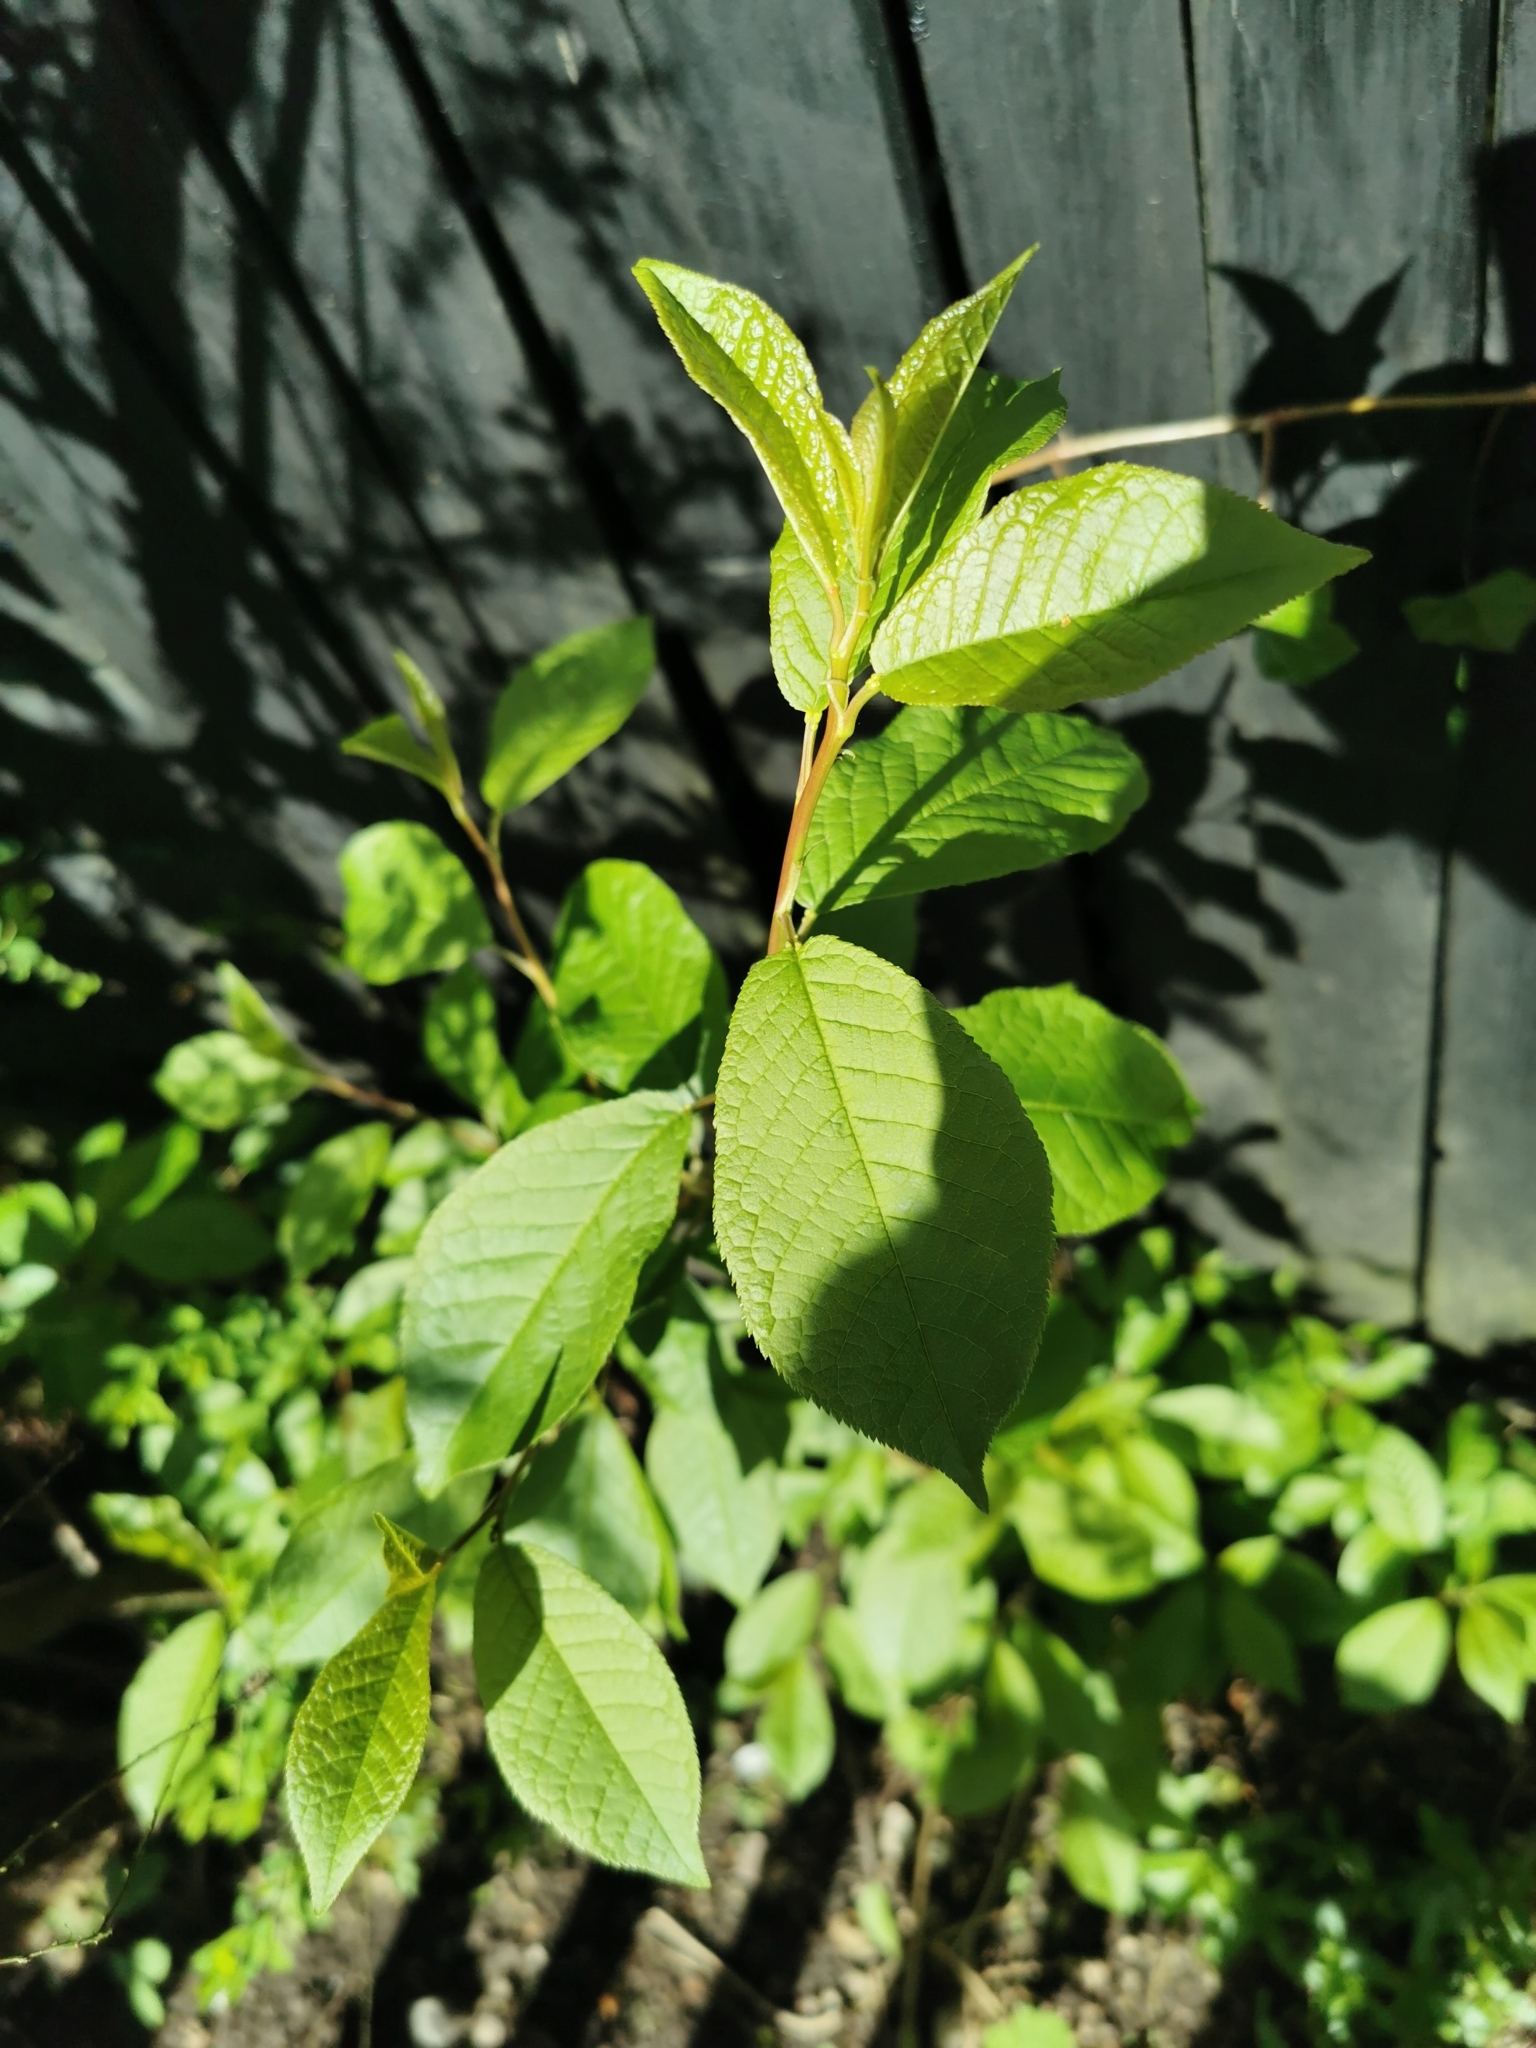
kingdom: Plantae
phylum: Tracheophyta
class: Magnoliopsida
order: Rosales
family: Rosaceae
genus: Prunus
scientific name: Prunus padus
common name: Bird cherry
